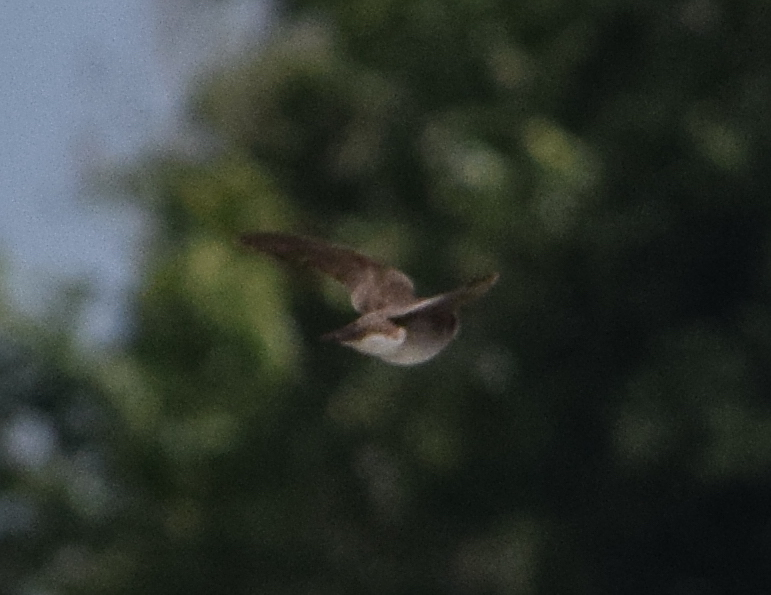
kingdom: Animalia
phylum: Chordata
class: Aves
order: Passeriformes
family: Hirundinidae
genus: Stelgidopteryx
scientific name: Stelgidopteryx serripennis
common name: Northern rough-winged swallow
